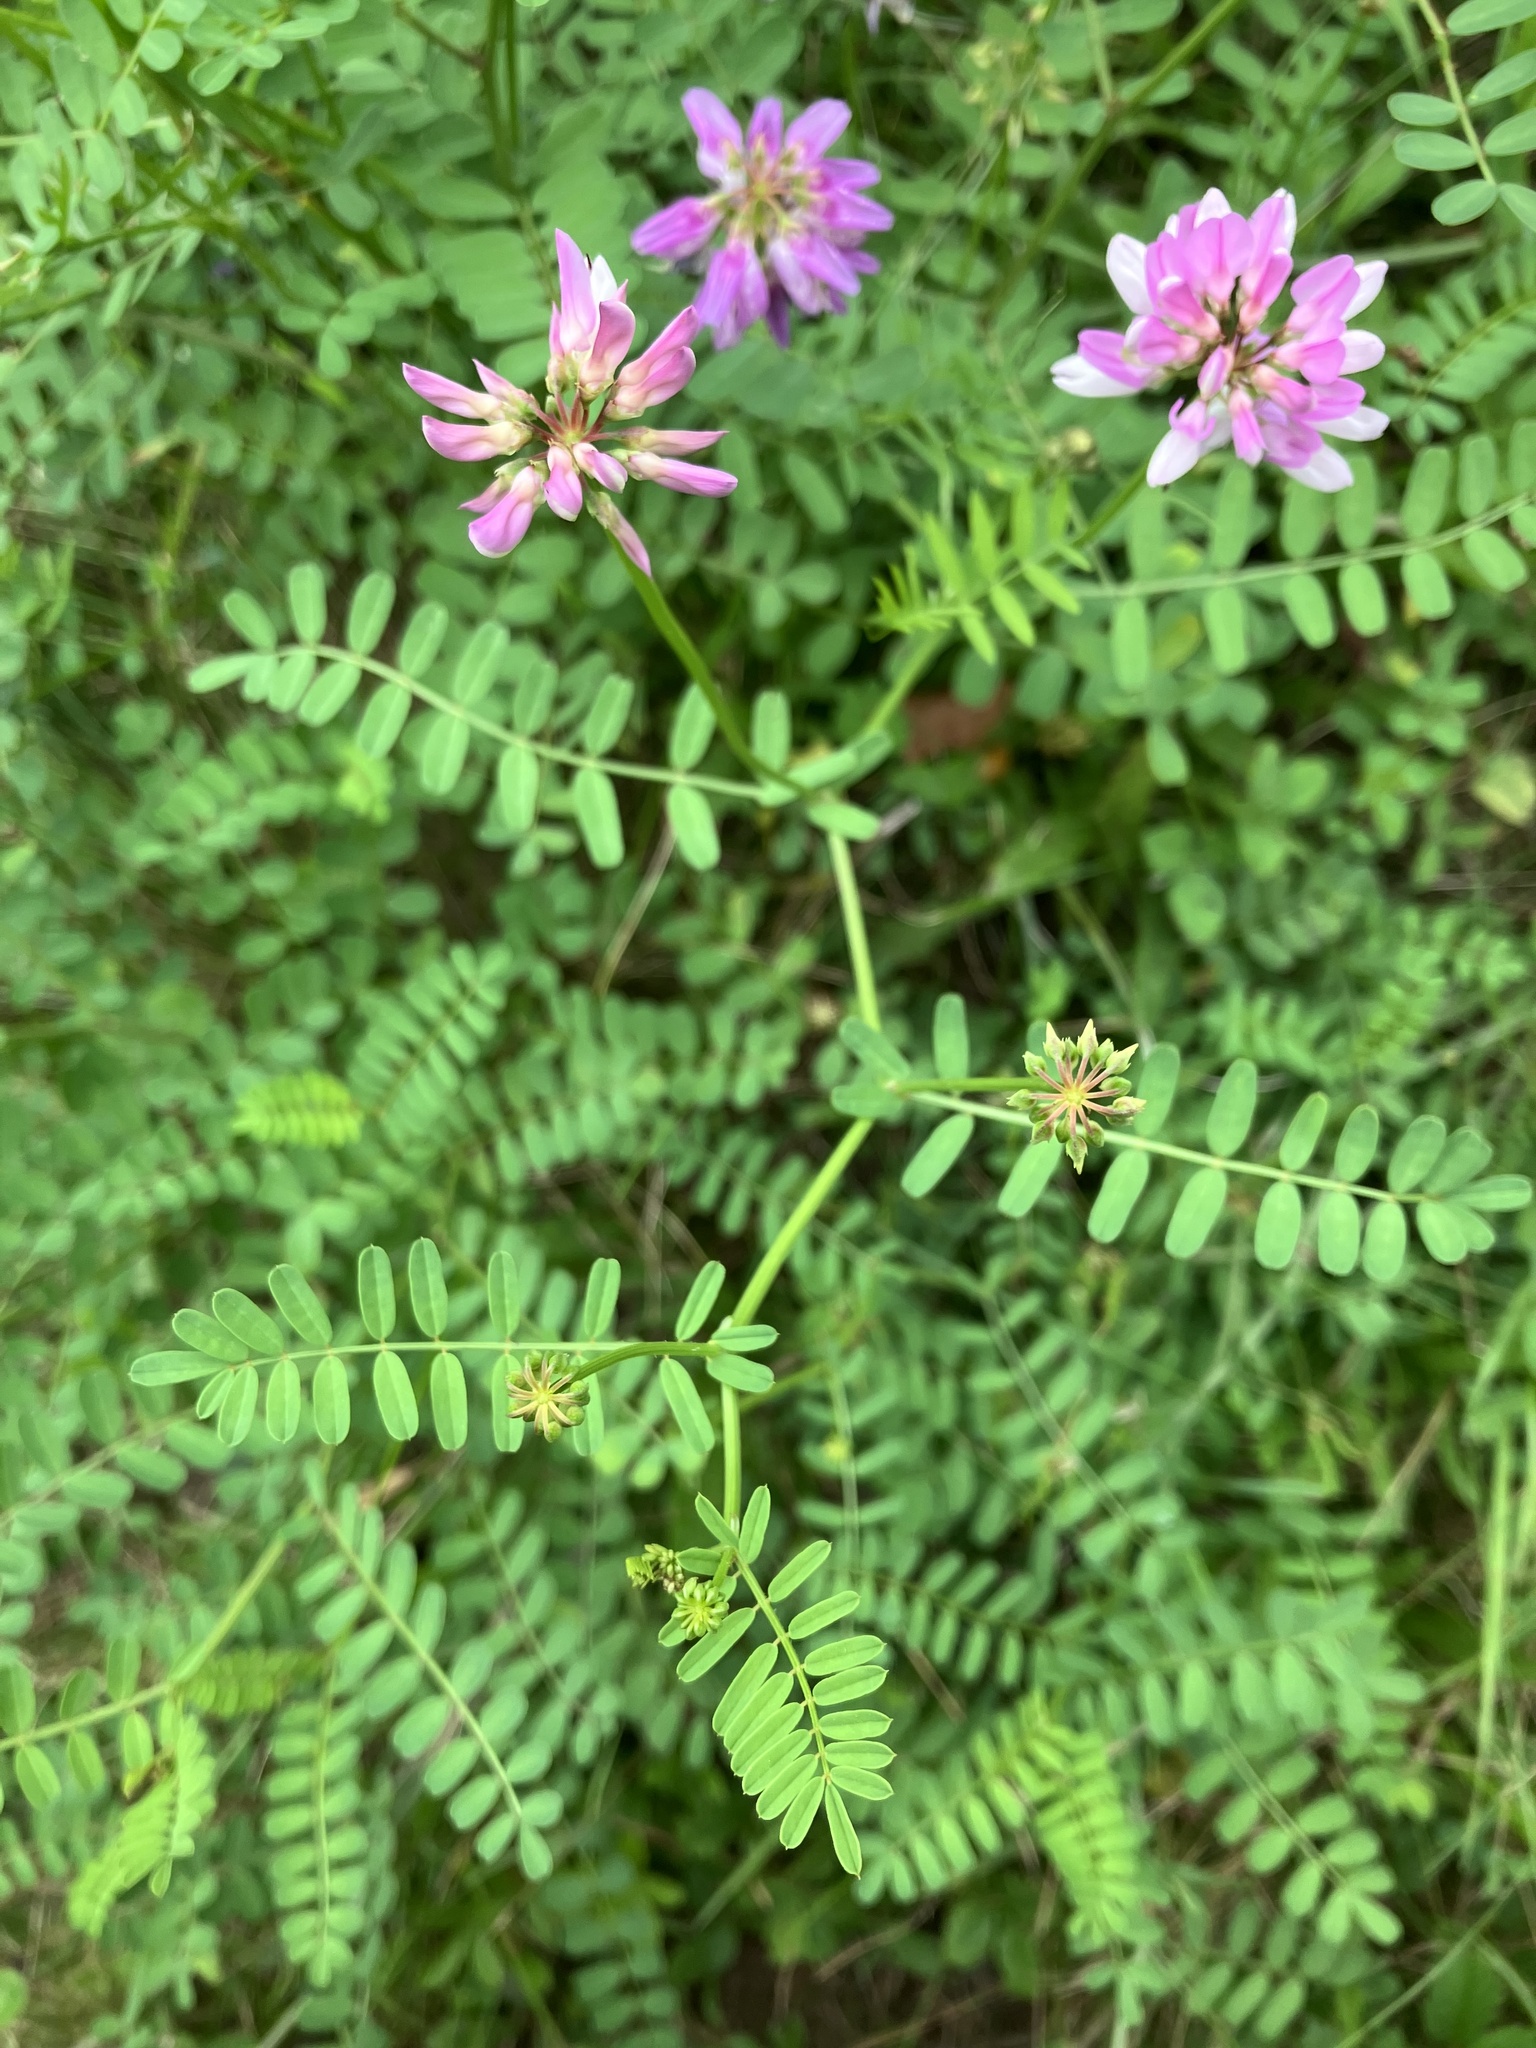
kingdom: Plantae
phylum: Tracheophyta
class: Magnoliopsida
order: Fabales
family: Fabaceae
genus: Coronilla
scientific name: Coronilla varia
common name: Crownvetch
